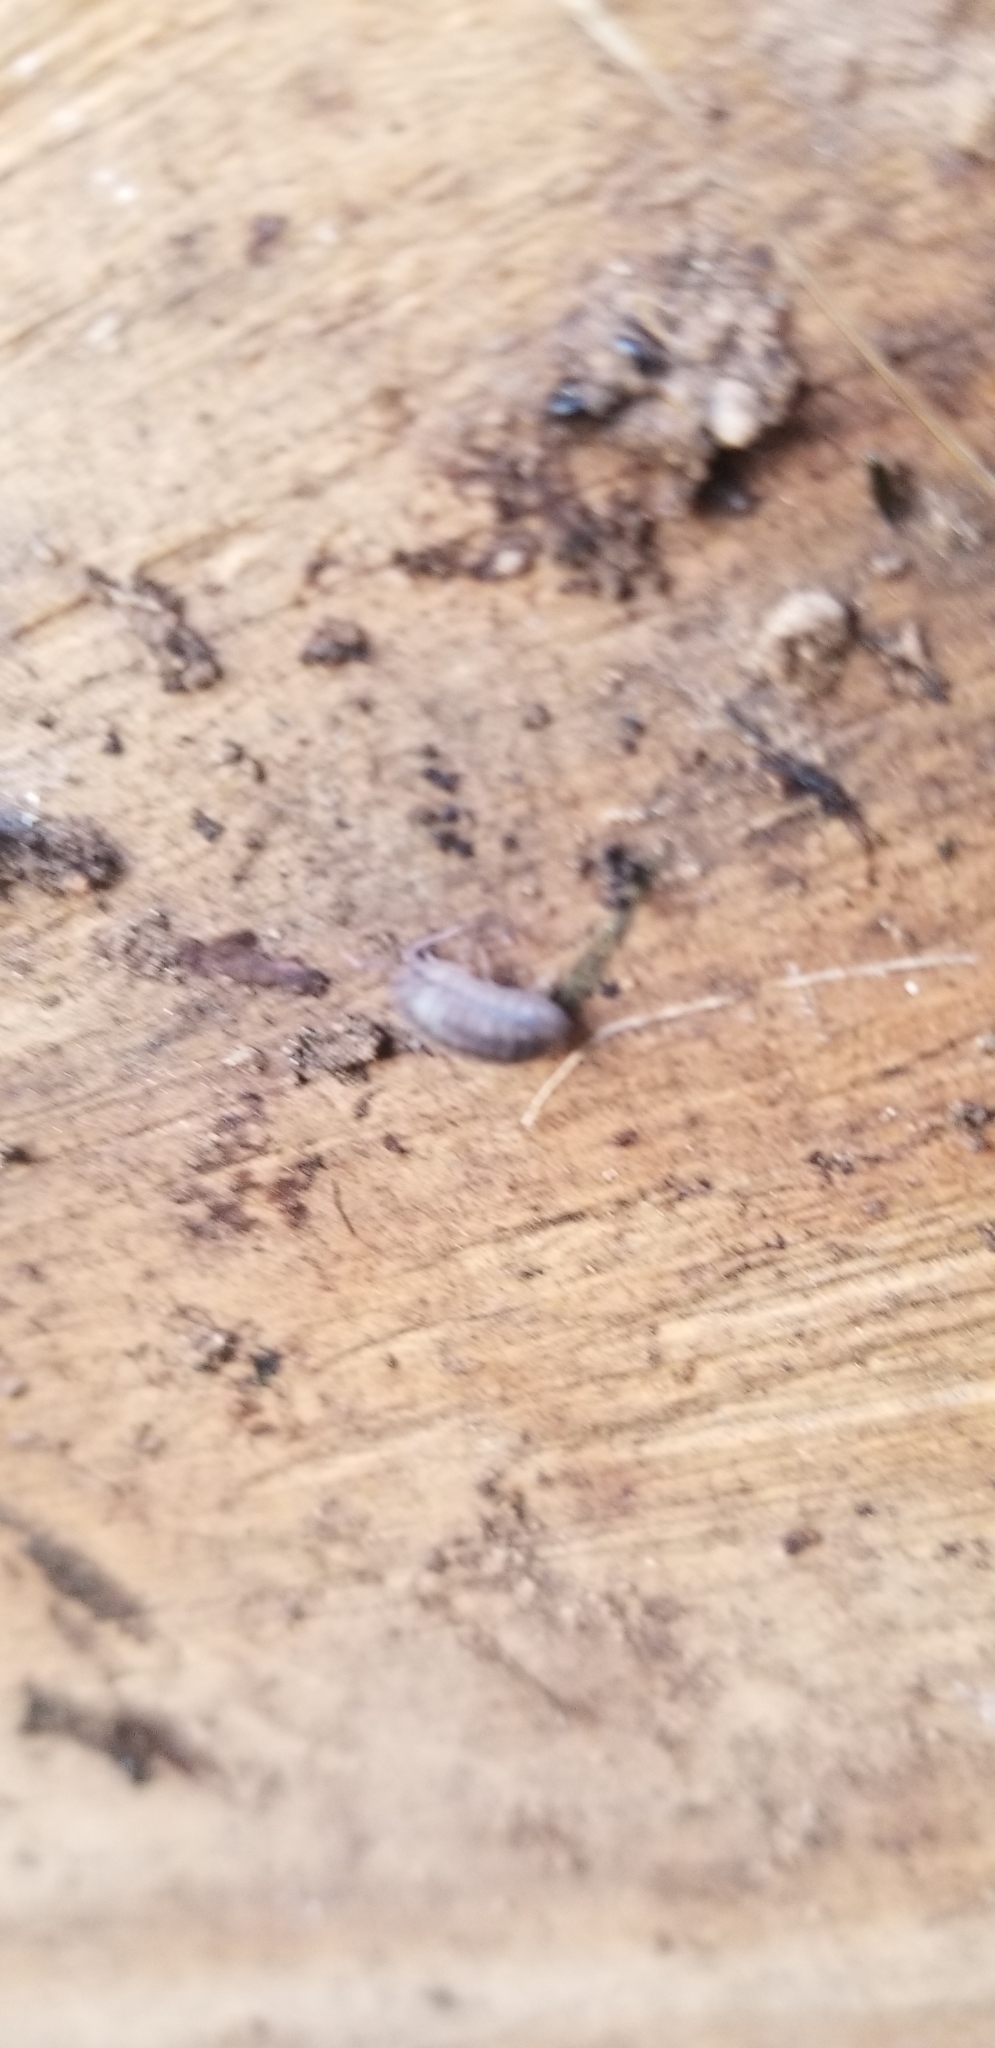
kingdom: Animalia
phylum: Arthropoda
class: Malacostraca
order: Isopoda
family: Armadillidiidae
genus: Armadillidium
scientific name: Armadillidium nasatum
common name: Isopod
